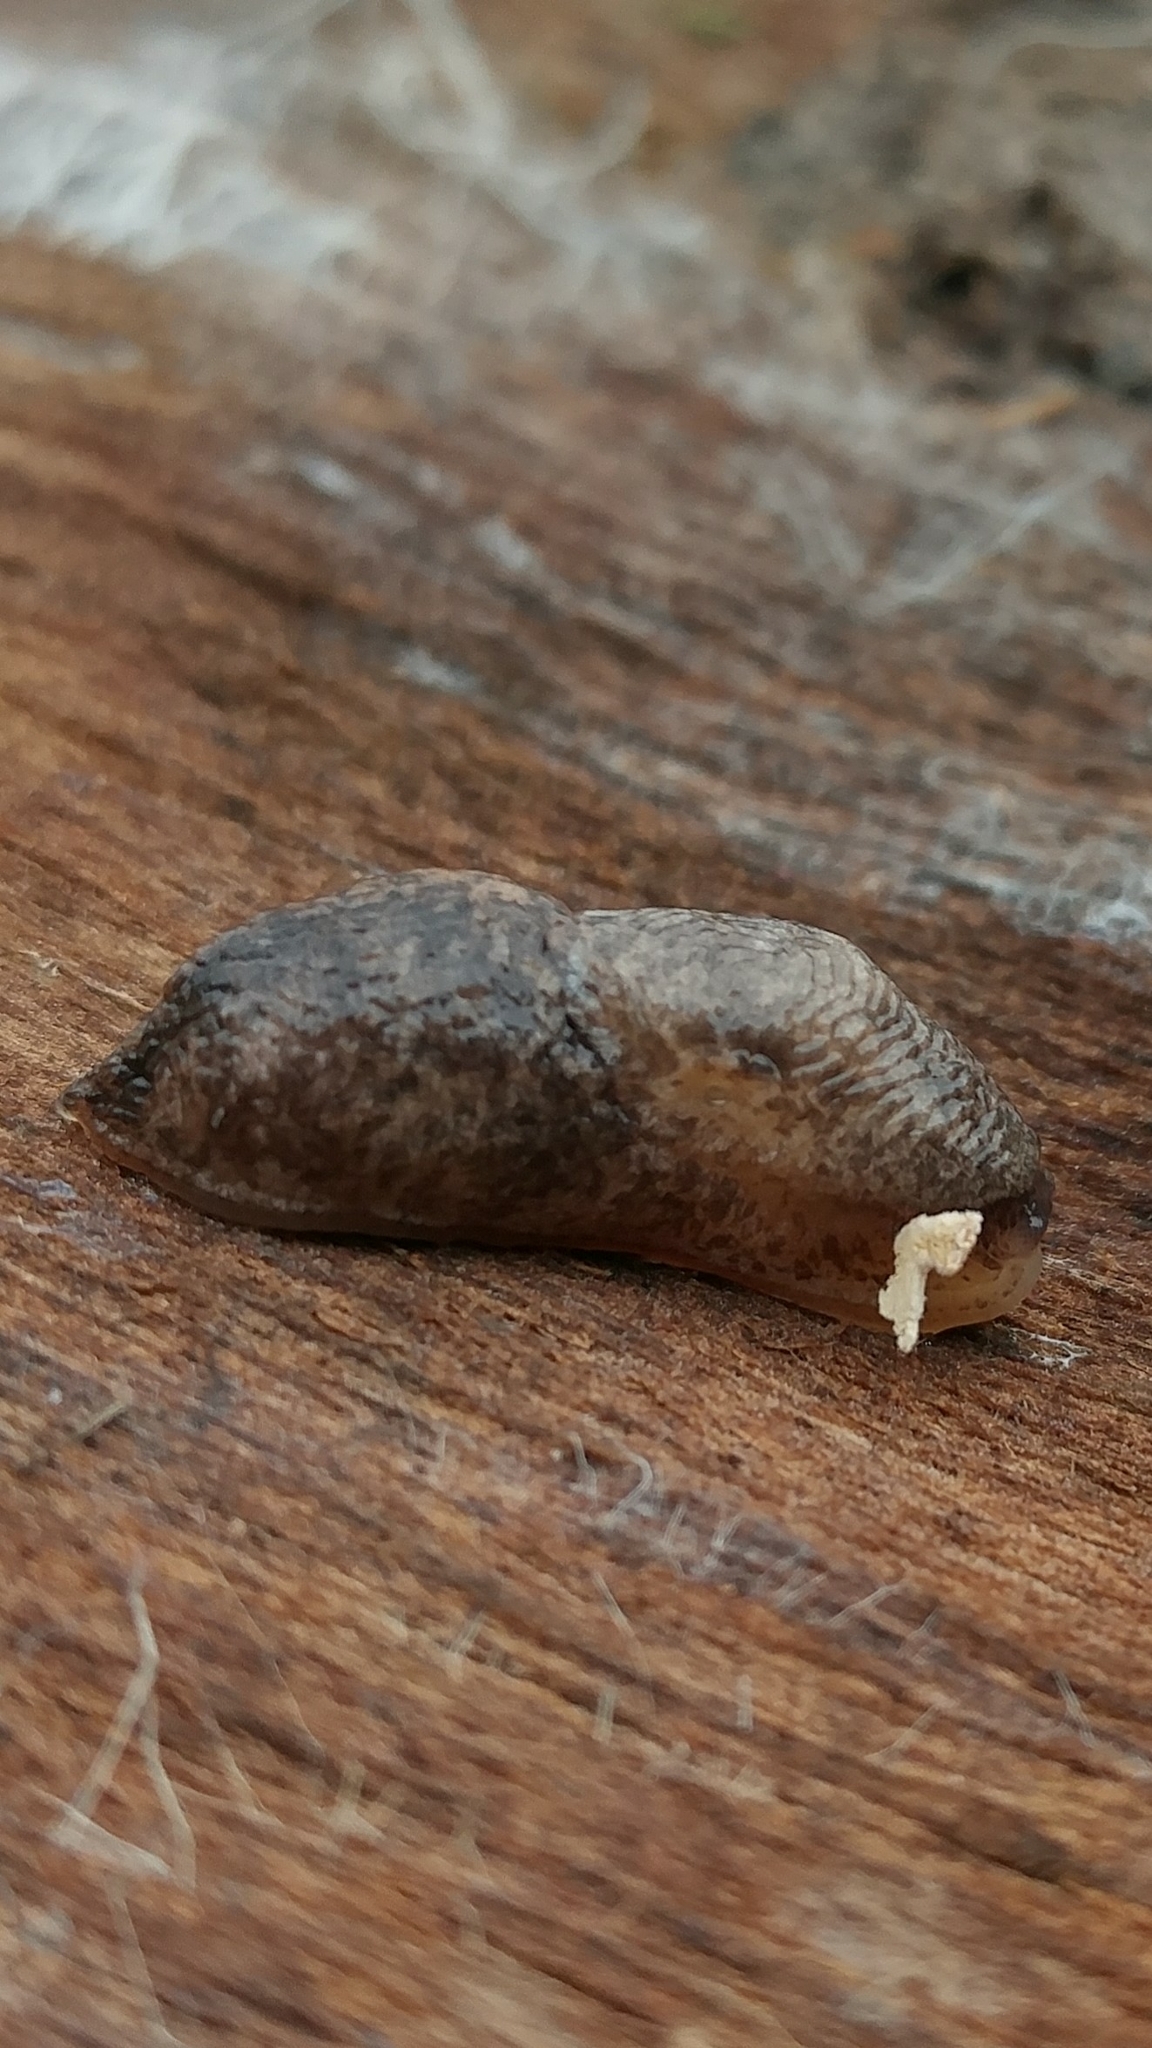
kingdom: Animalia
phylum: Mollusca
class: Gastropoda
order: Stylommatophora
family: Agriolimacidae
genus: Deroceras
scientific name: Deroceras reticulatum
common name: Gray field slug
